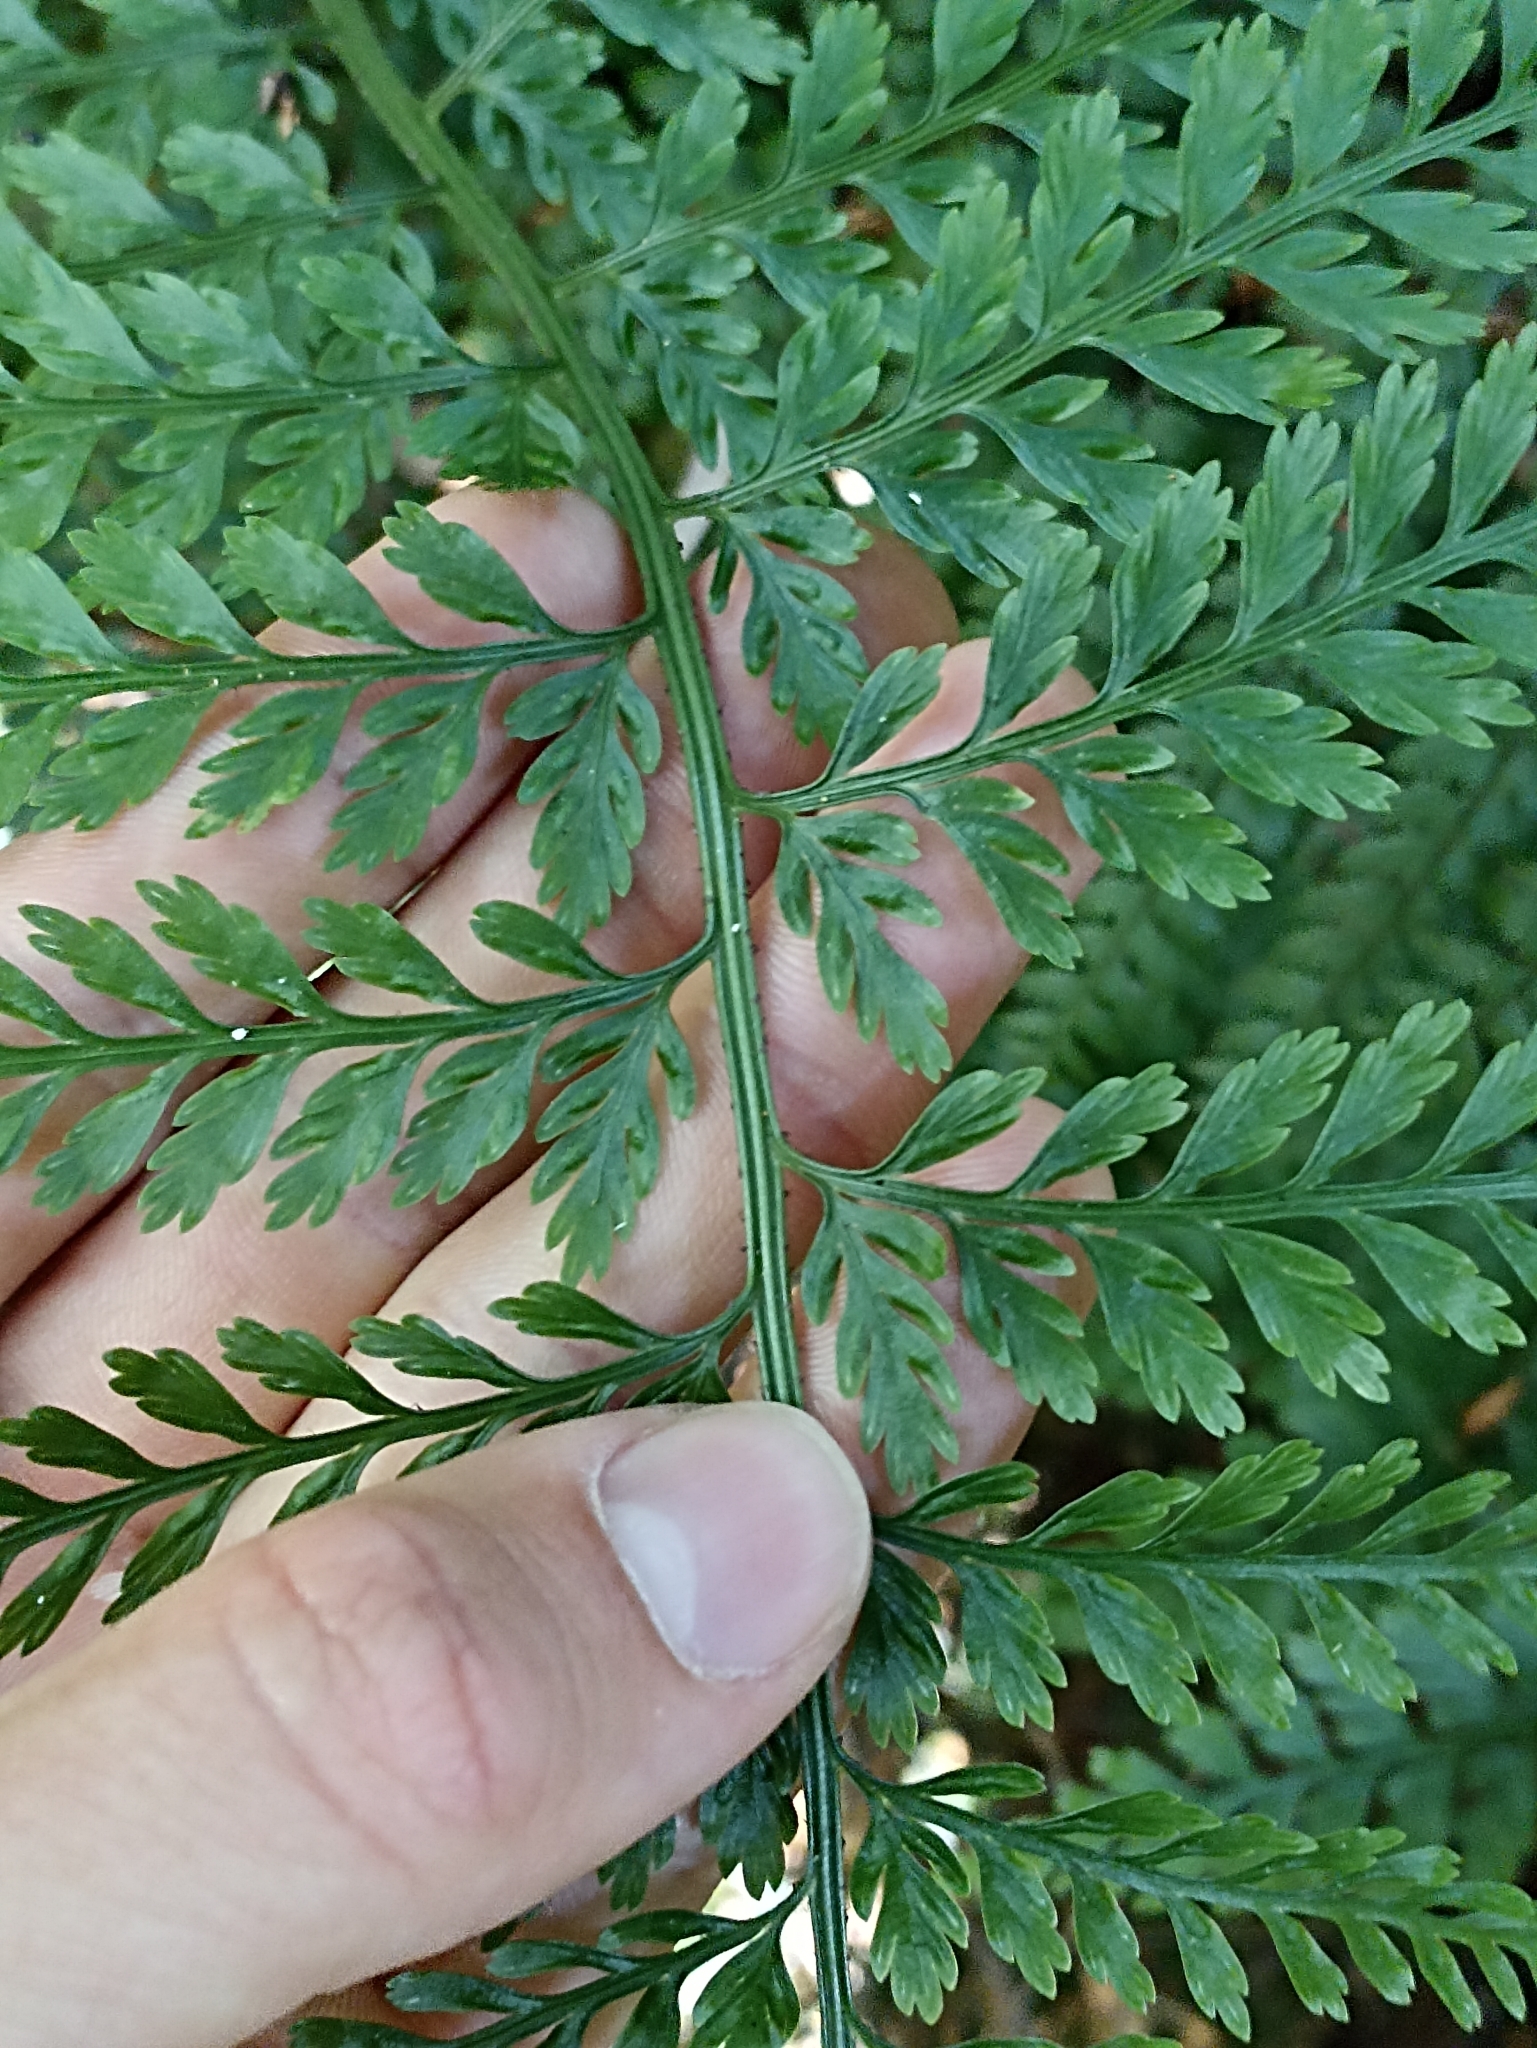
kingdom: Plantae
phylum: Tracheophyta
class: Polypodiopsida
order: Polypodiales
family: Aspleniaceae
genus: Asplenium
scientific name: Asplenium
